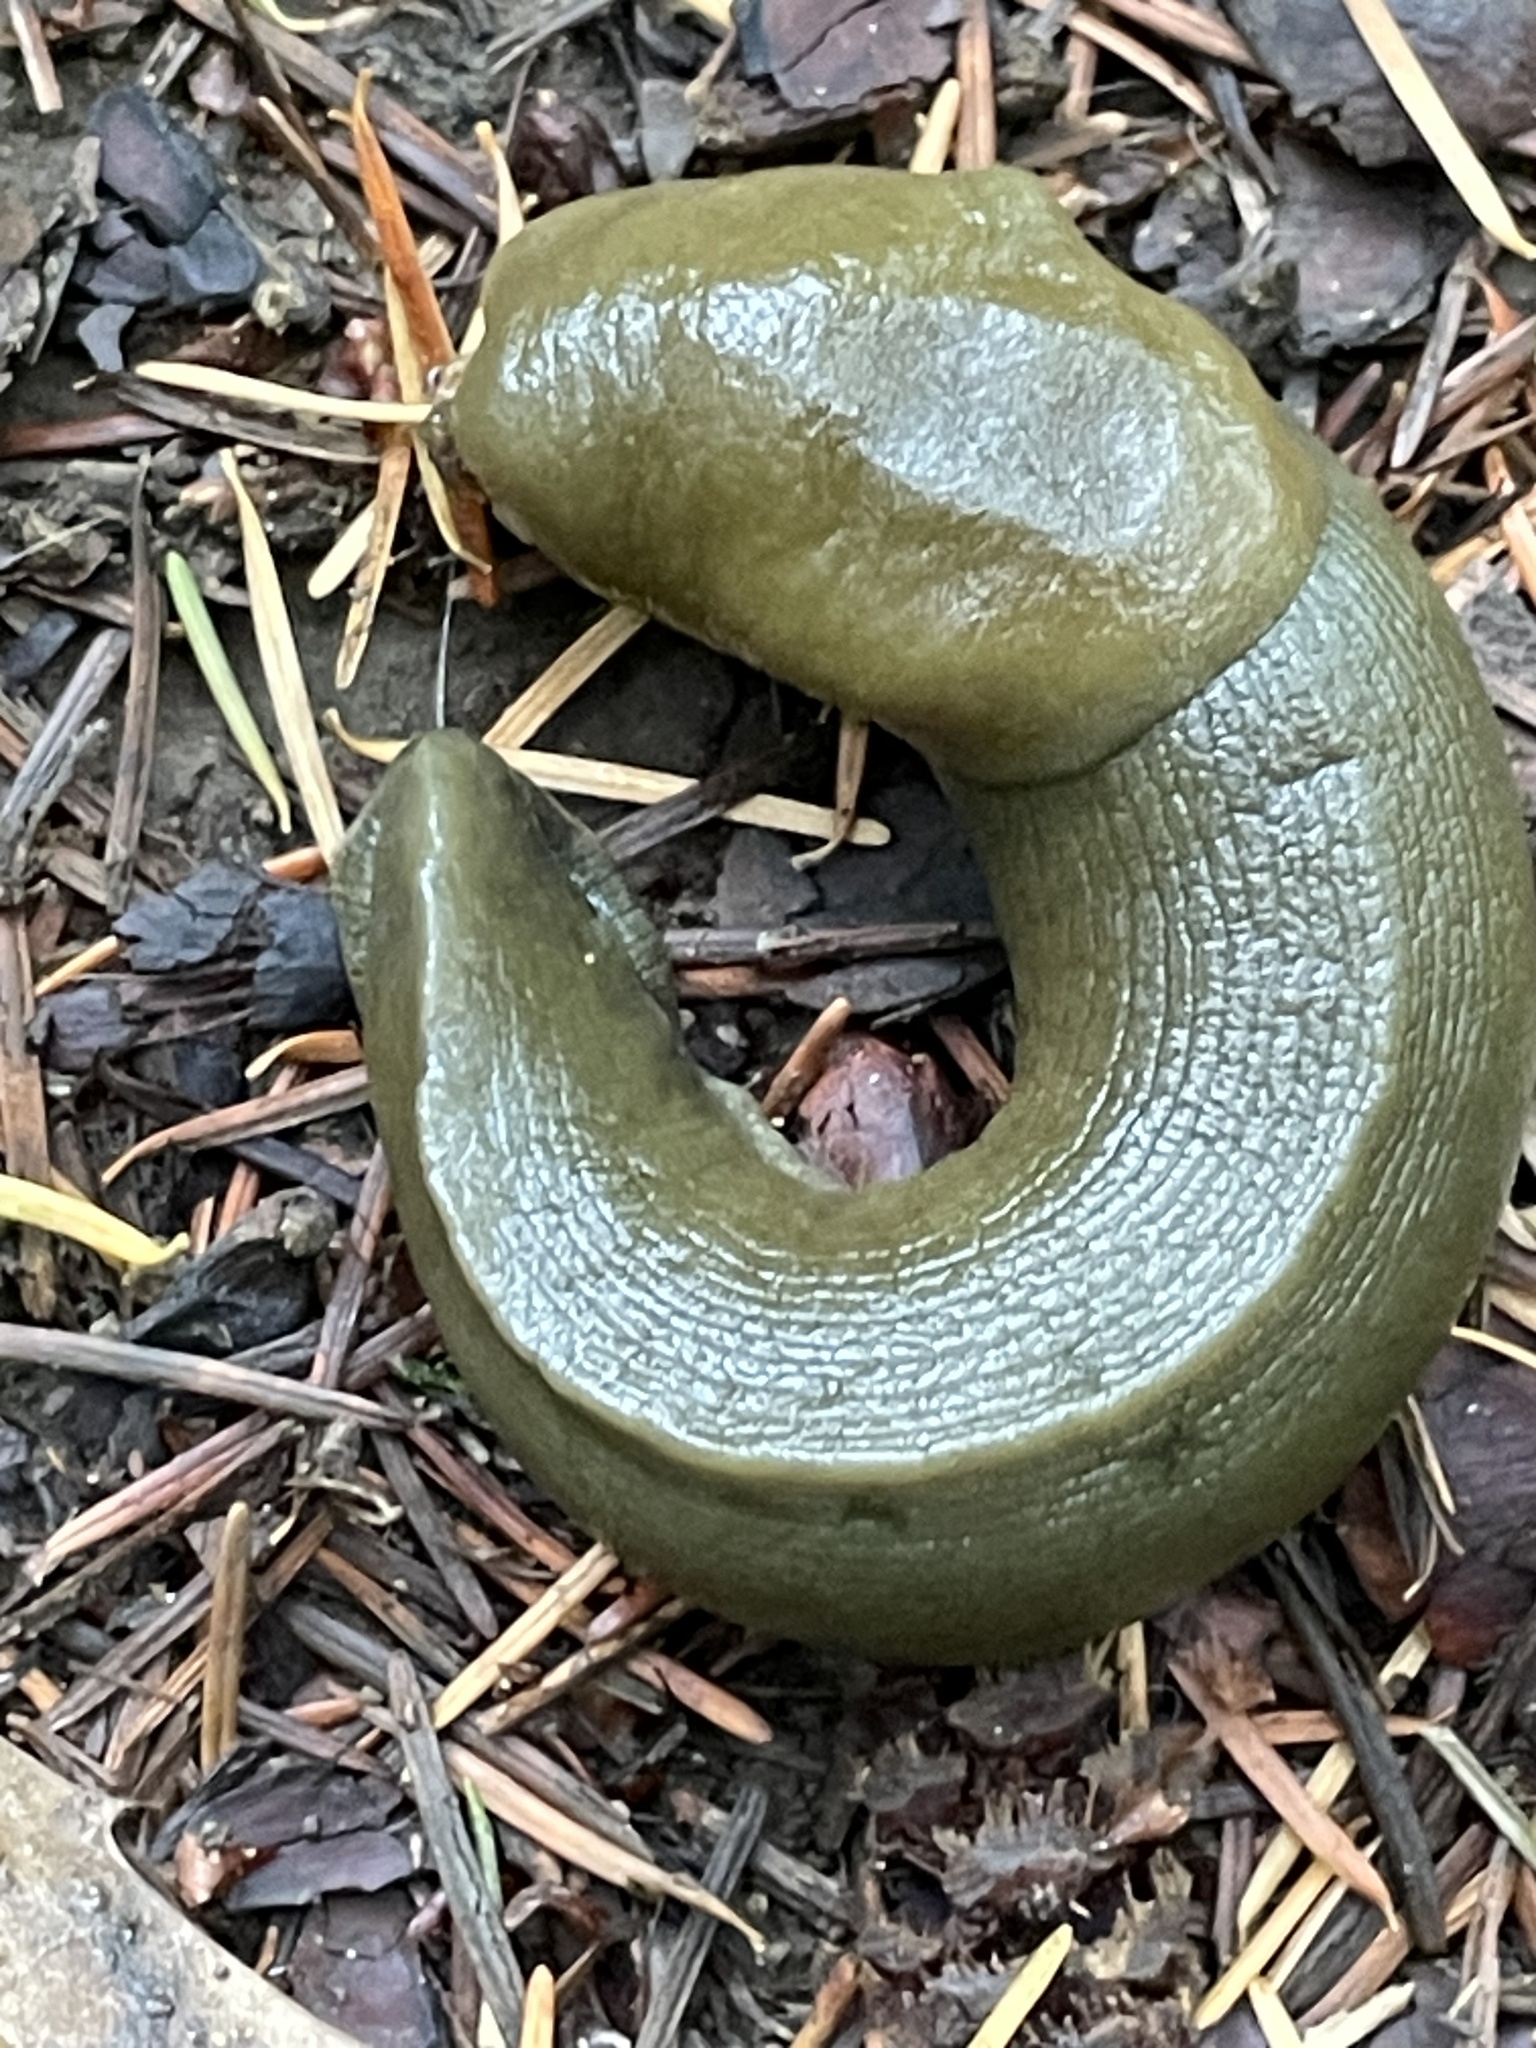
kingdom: Animalia
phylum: Mollusca
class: Gastropoda
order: Stylommatophora
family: Ariolimacidae
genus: Ariolimax
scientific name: Ariolimax columbianus
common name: Pacific banana slug
